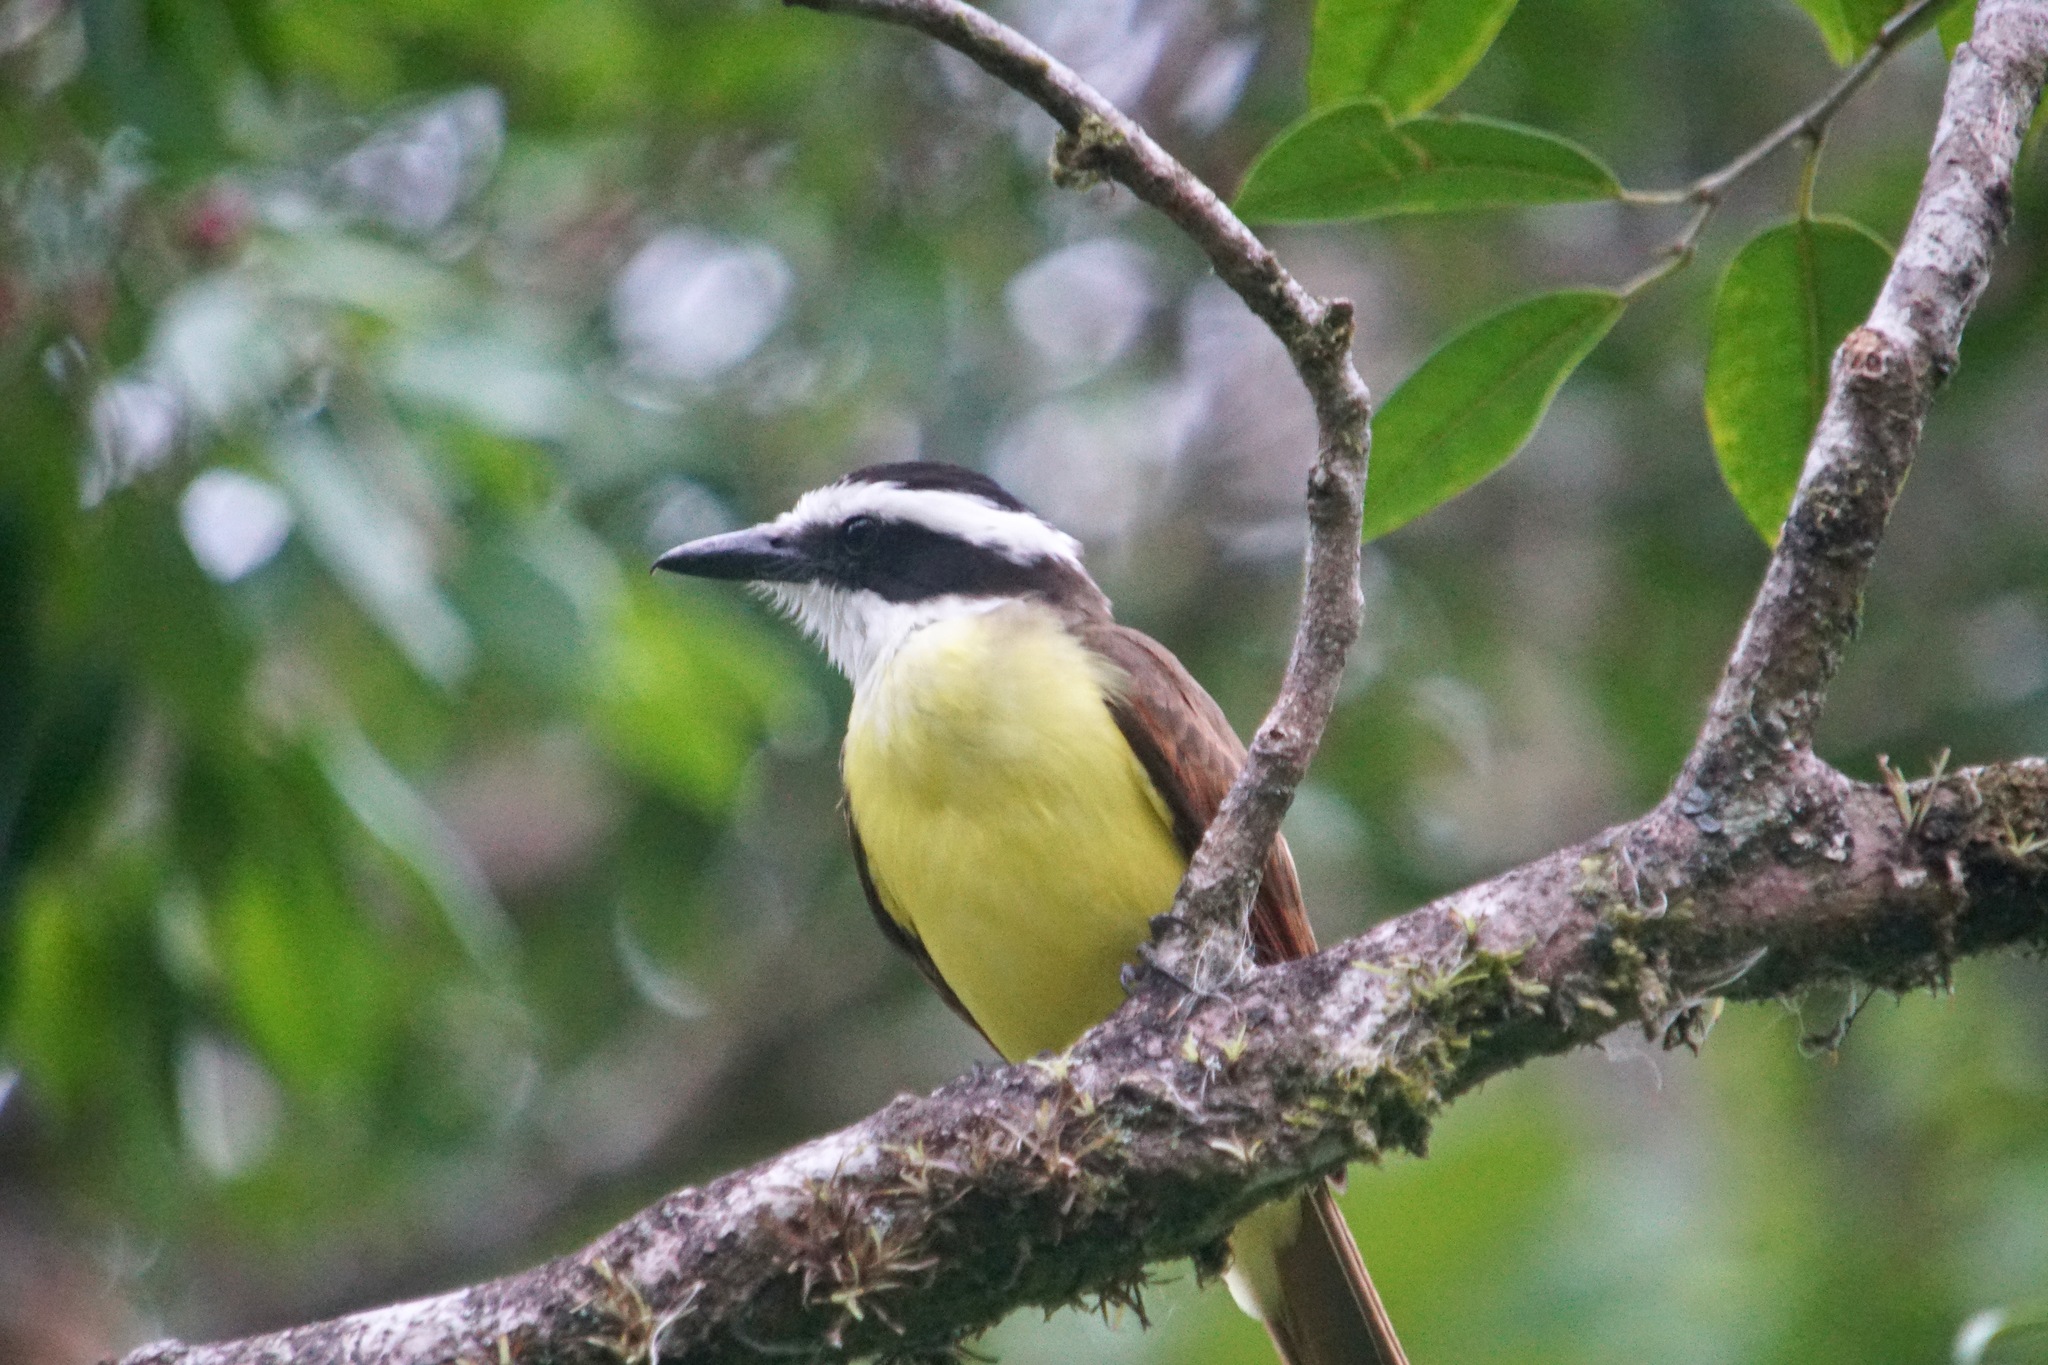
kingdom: Animalia
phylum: Chordata
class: Aves
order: Passeriformes
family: Tyrannidae
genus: Pitangus
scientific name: Pitangus sulphuratus
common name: Great kiskadee
